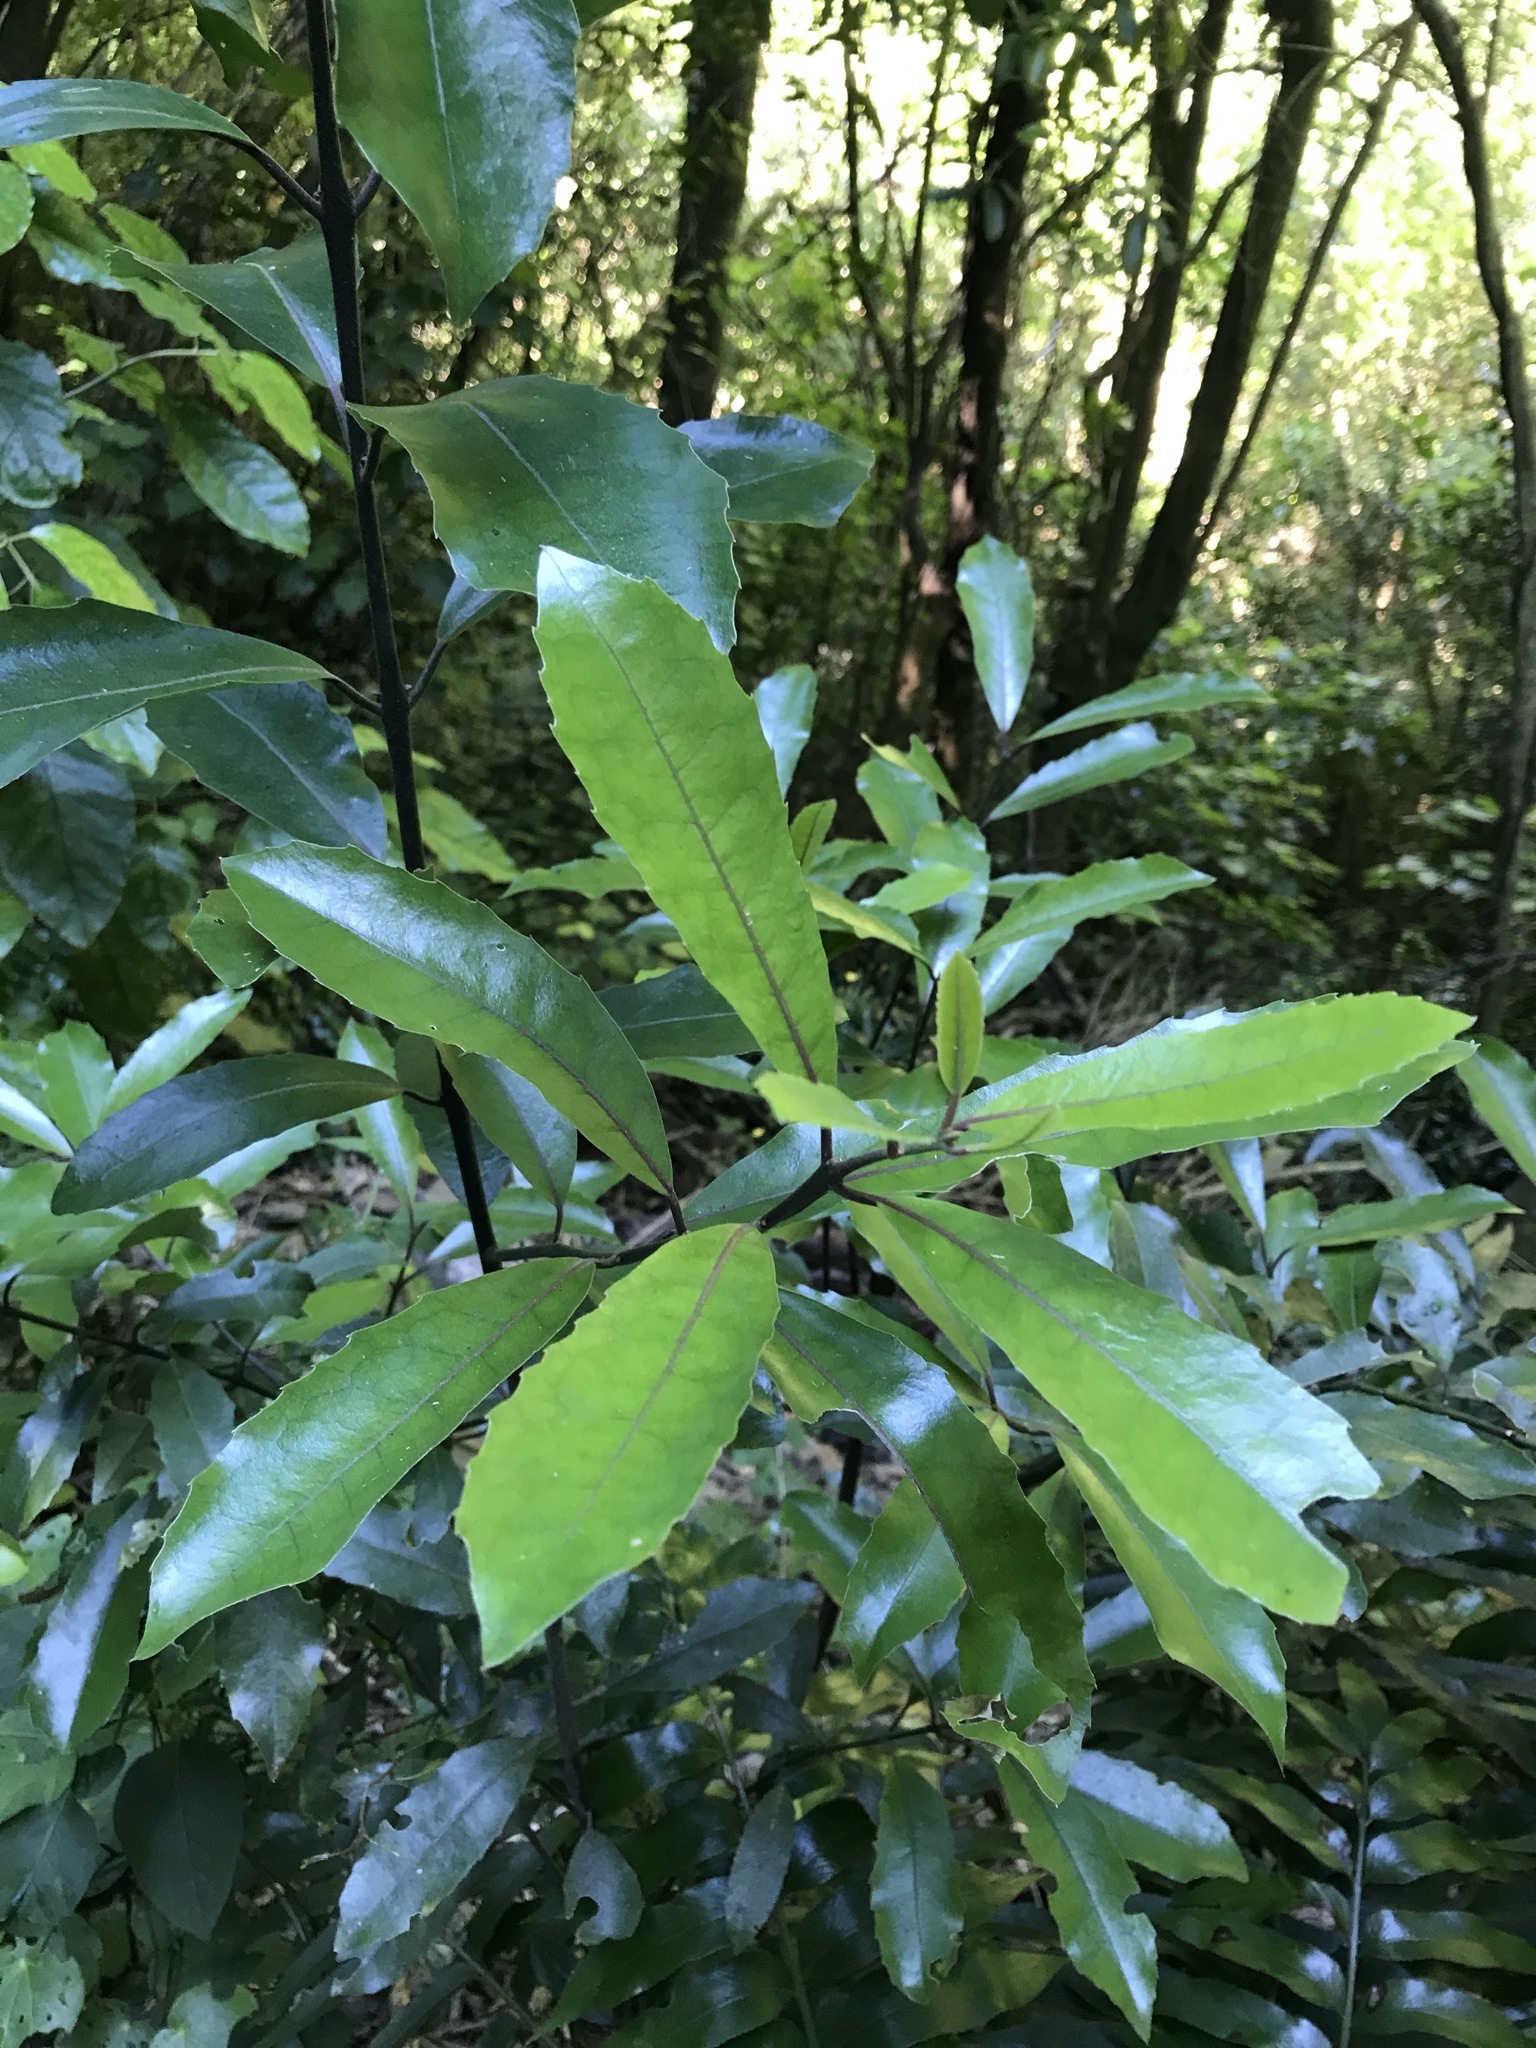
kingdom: Plantae
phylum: Tracheophyta
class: Magnoliopsida
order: Laurales
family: Monimiaceae
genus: Hedycarya
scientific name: Hedycarya arborea
